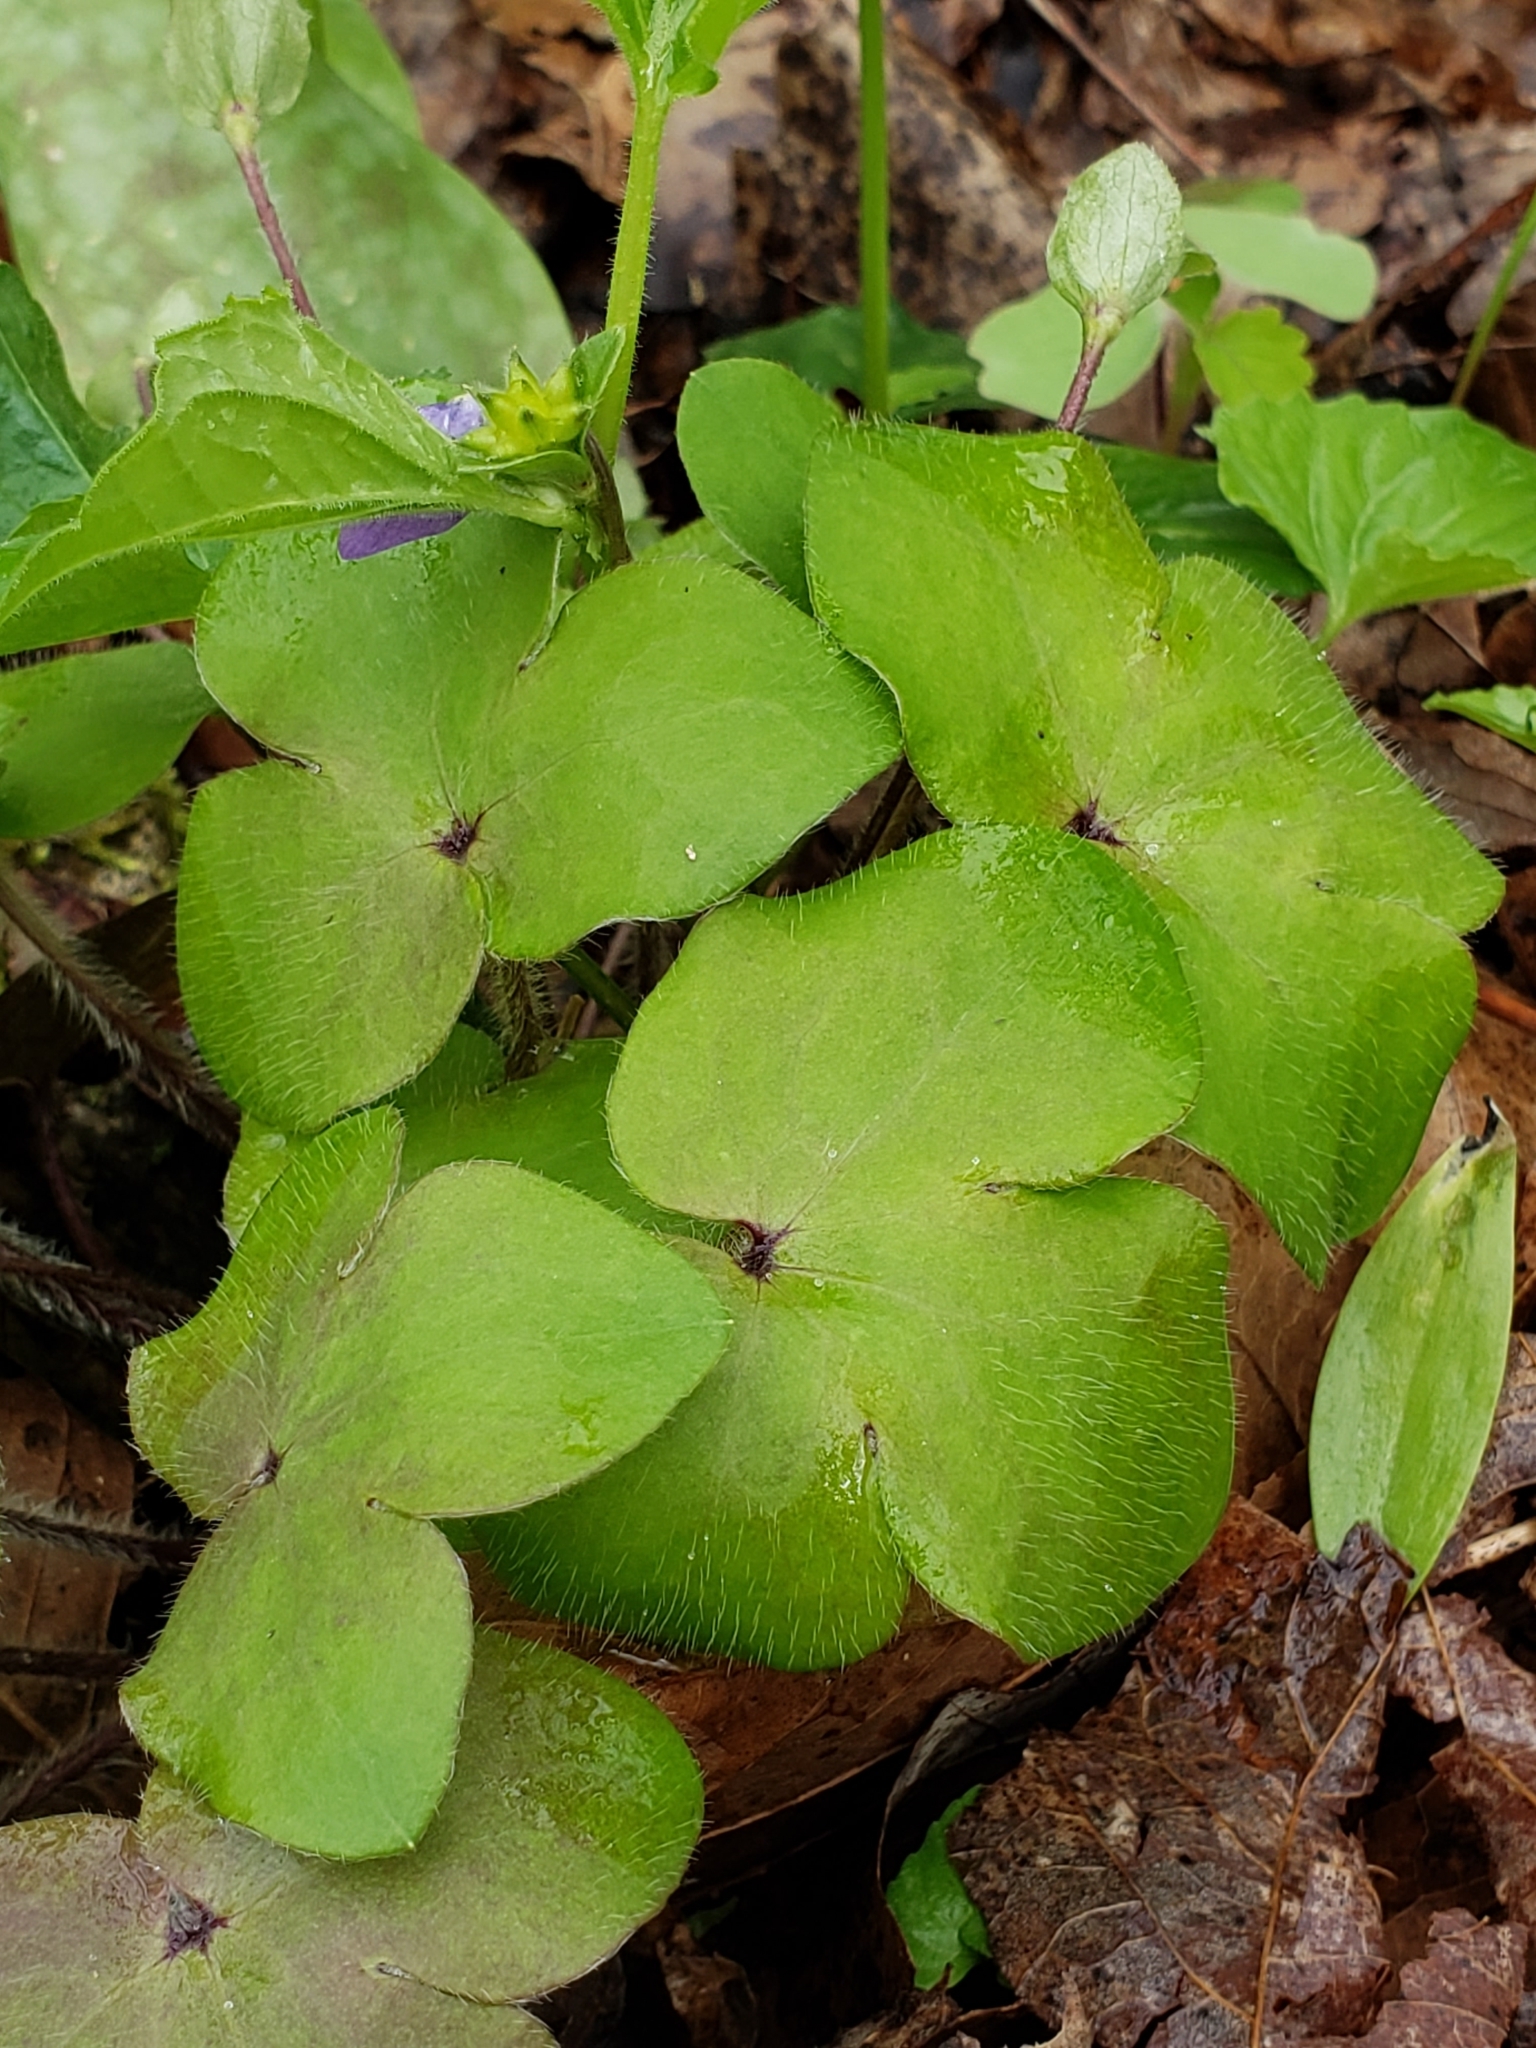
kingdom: Plantae
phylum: Tracheophyta
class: Magnoliopsida
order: Ranunculales
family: Ranunculaceae
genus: Hepatica
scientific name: Hepatica americana
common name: American hepatica
